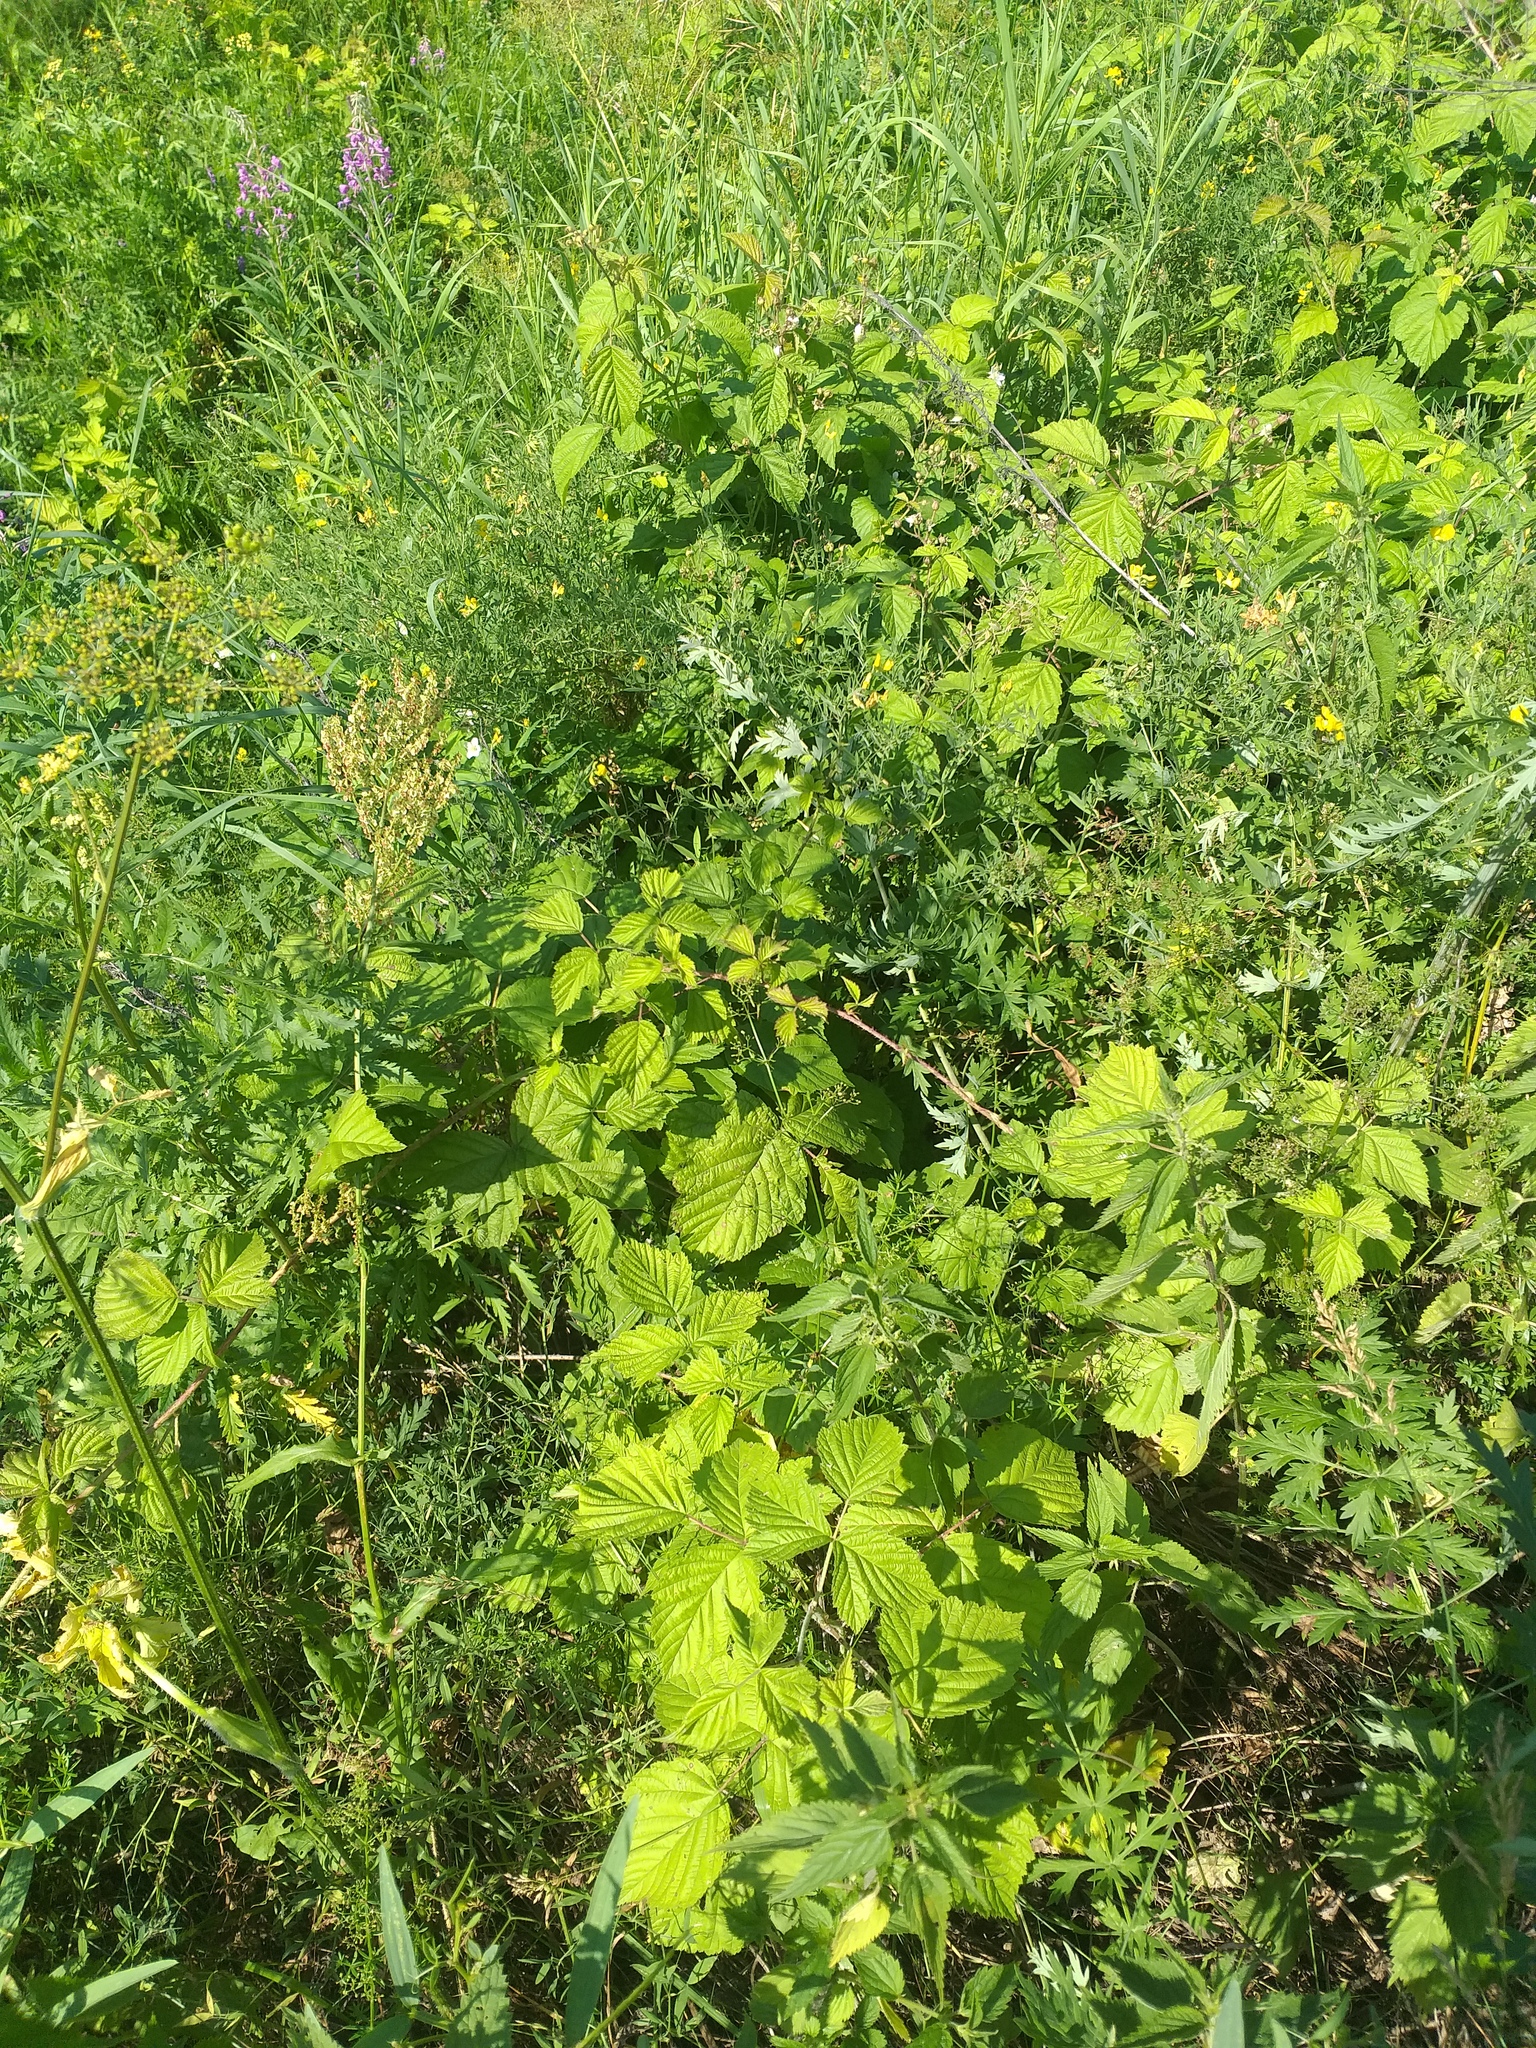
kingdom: Plantae
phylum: Tracheophyta
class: Magnoliopsida
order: Rosales
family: Rosaceae
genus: Rubus
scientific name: Rubus caesius
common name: Dewberry
